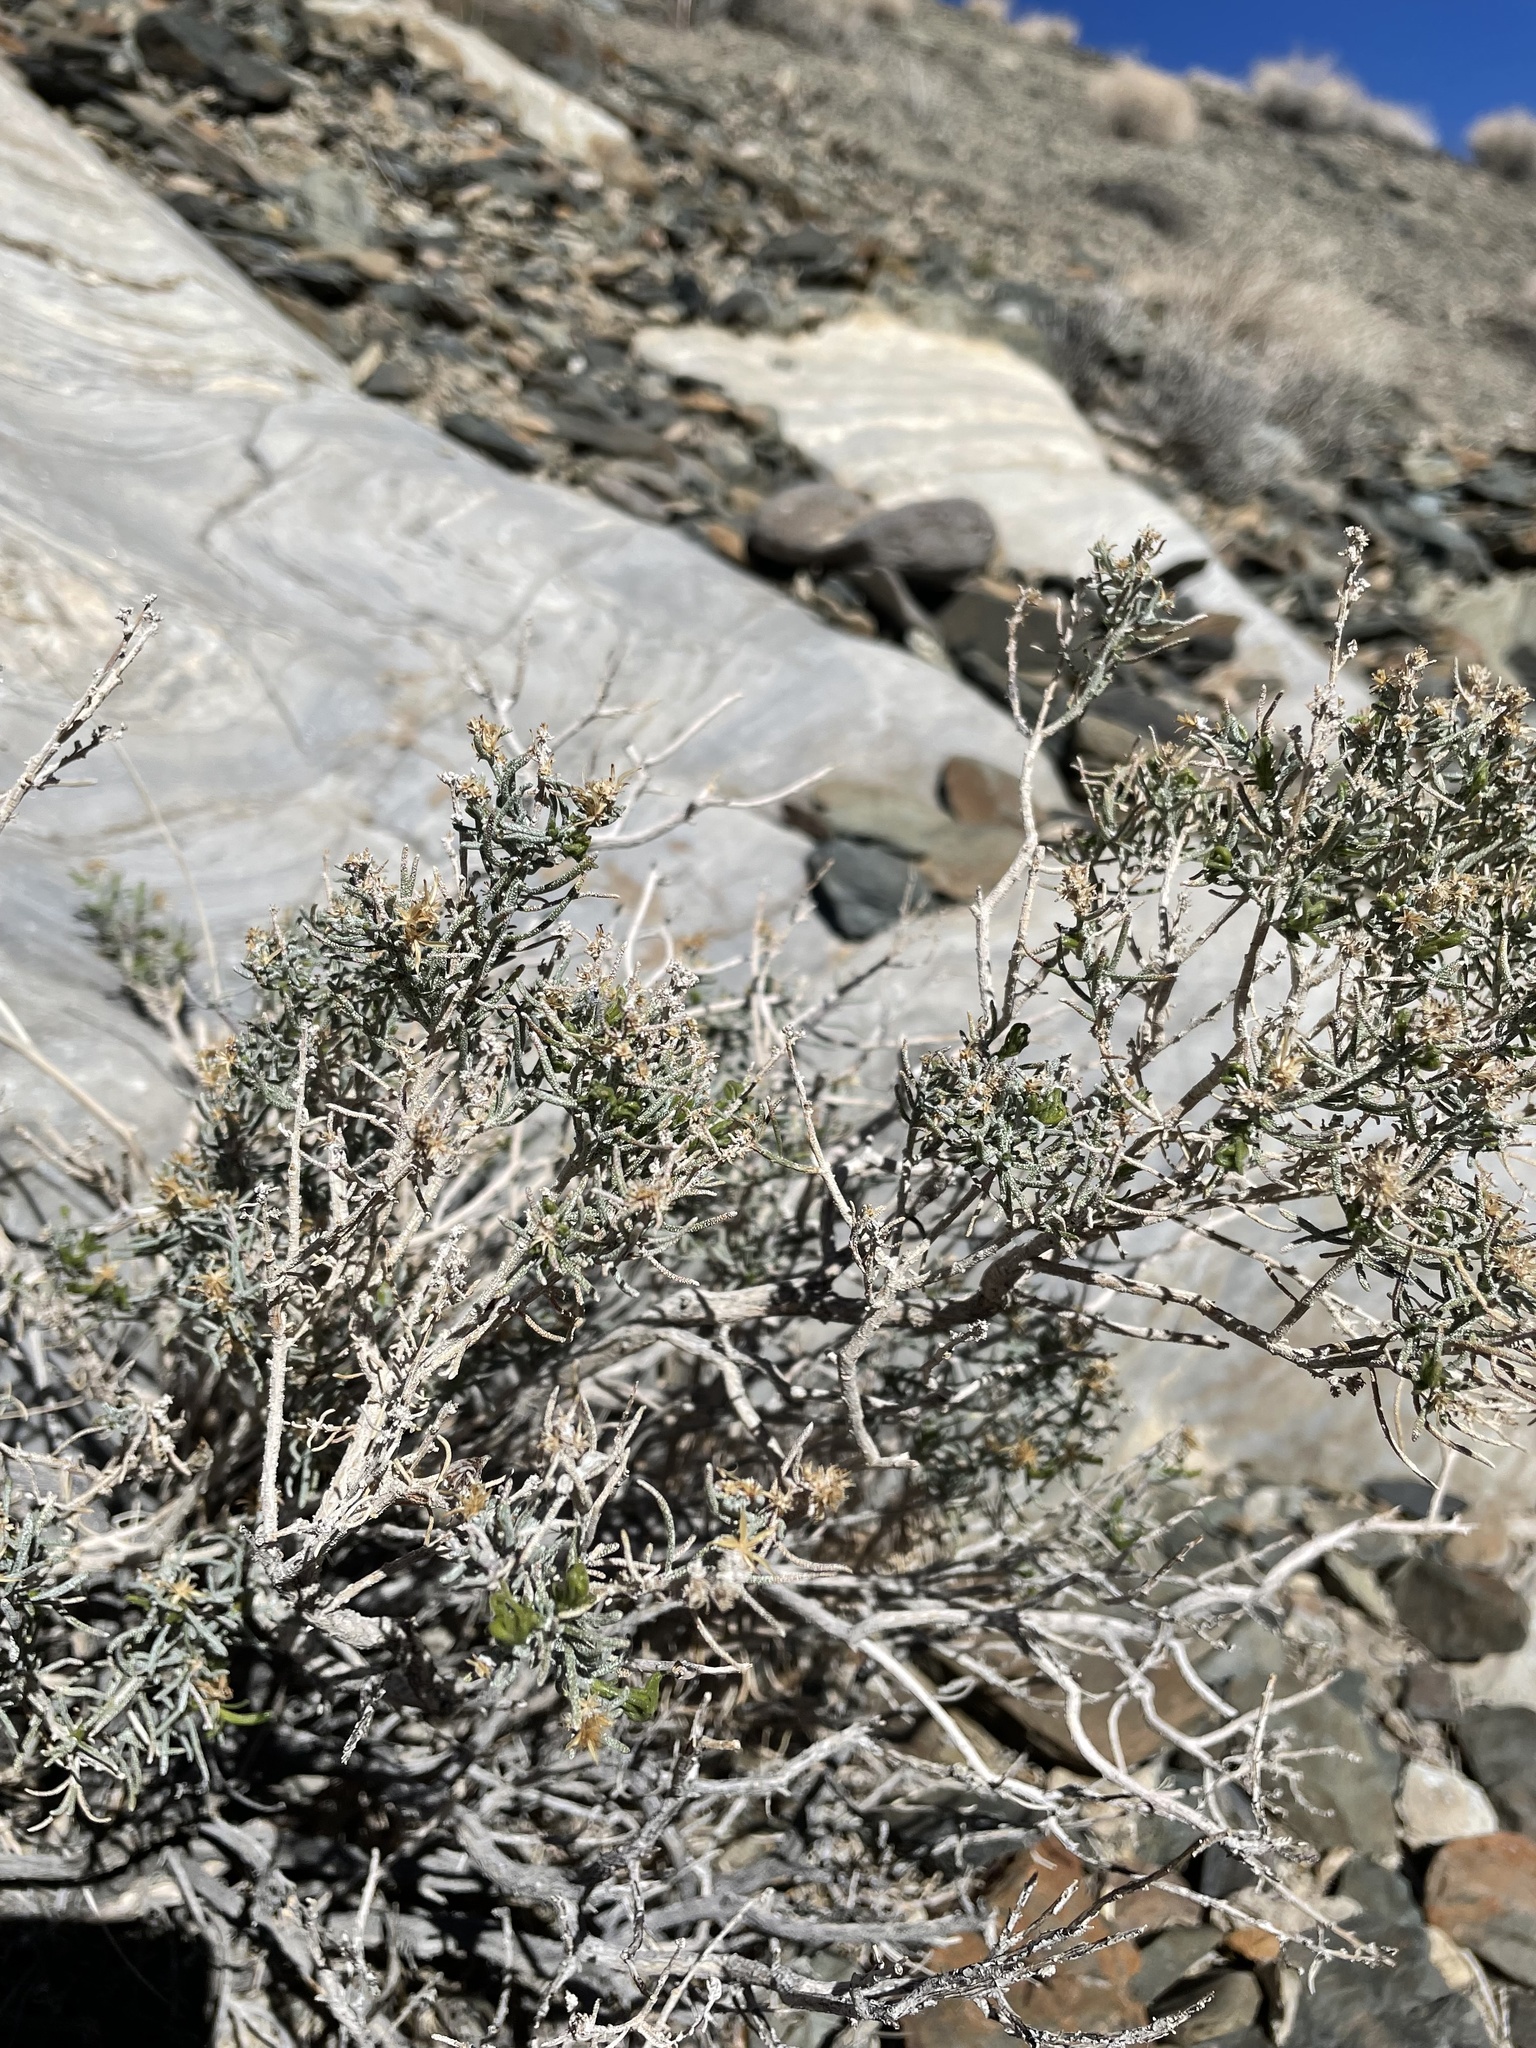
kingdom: Plantae
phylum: Tracheophyta
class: Magnoliopsida
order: Asterales
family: Asteraceae
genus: Ericameria
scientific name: Ericameria teretifolia
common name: Round-leaf rabbitbrush
